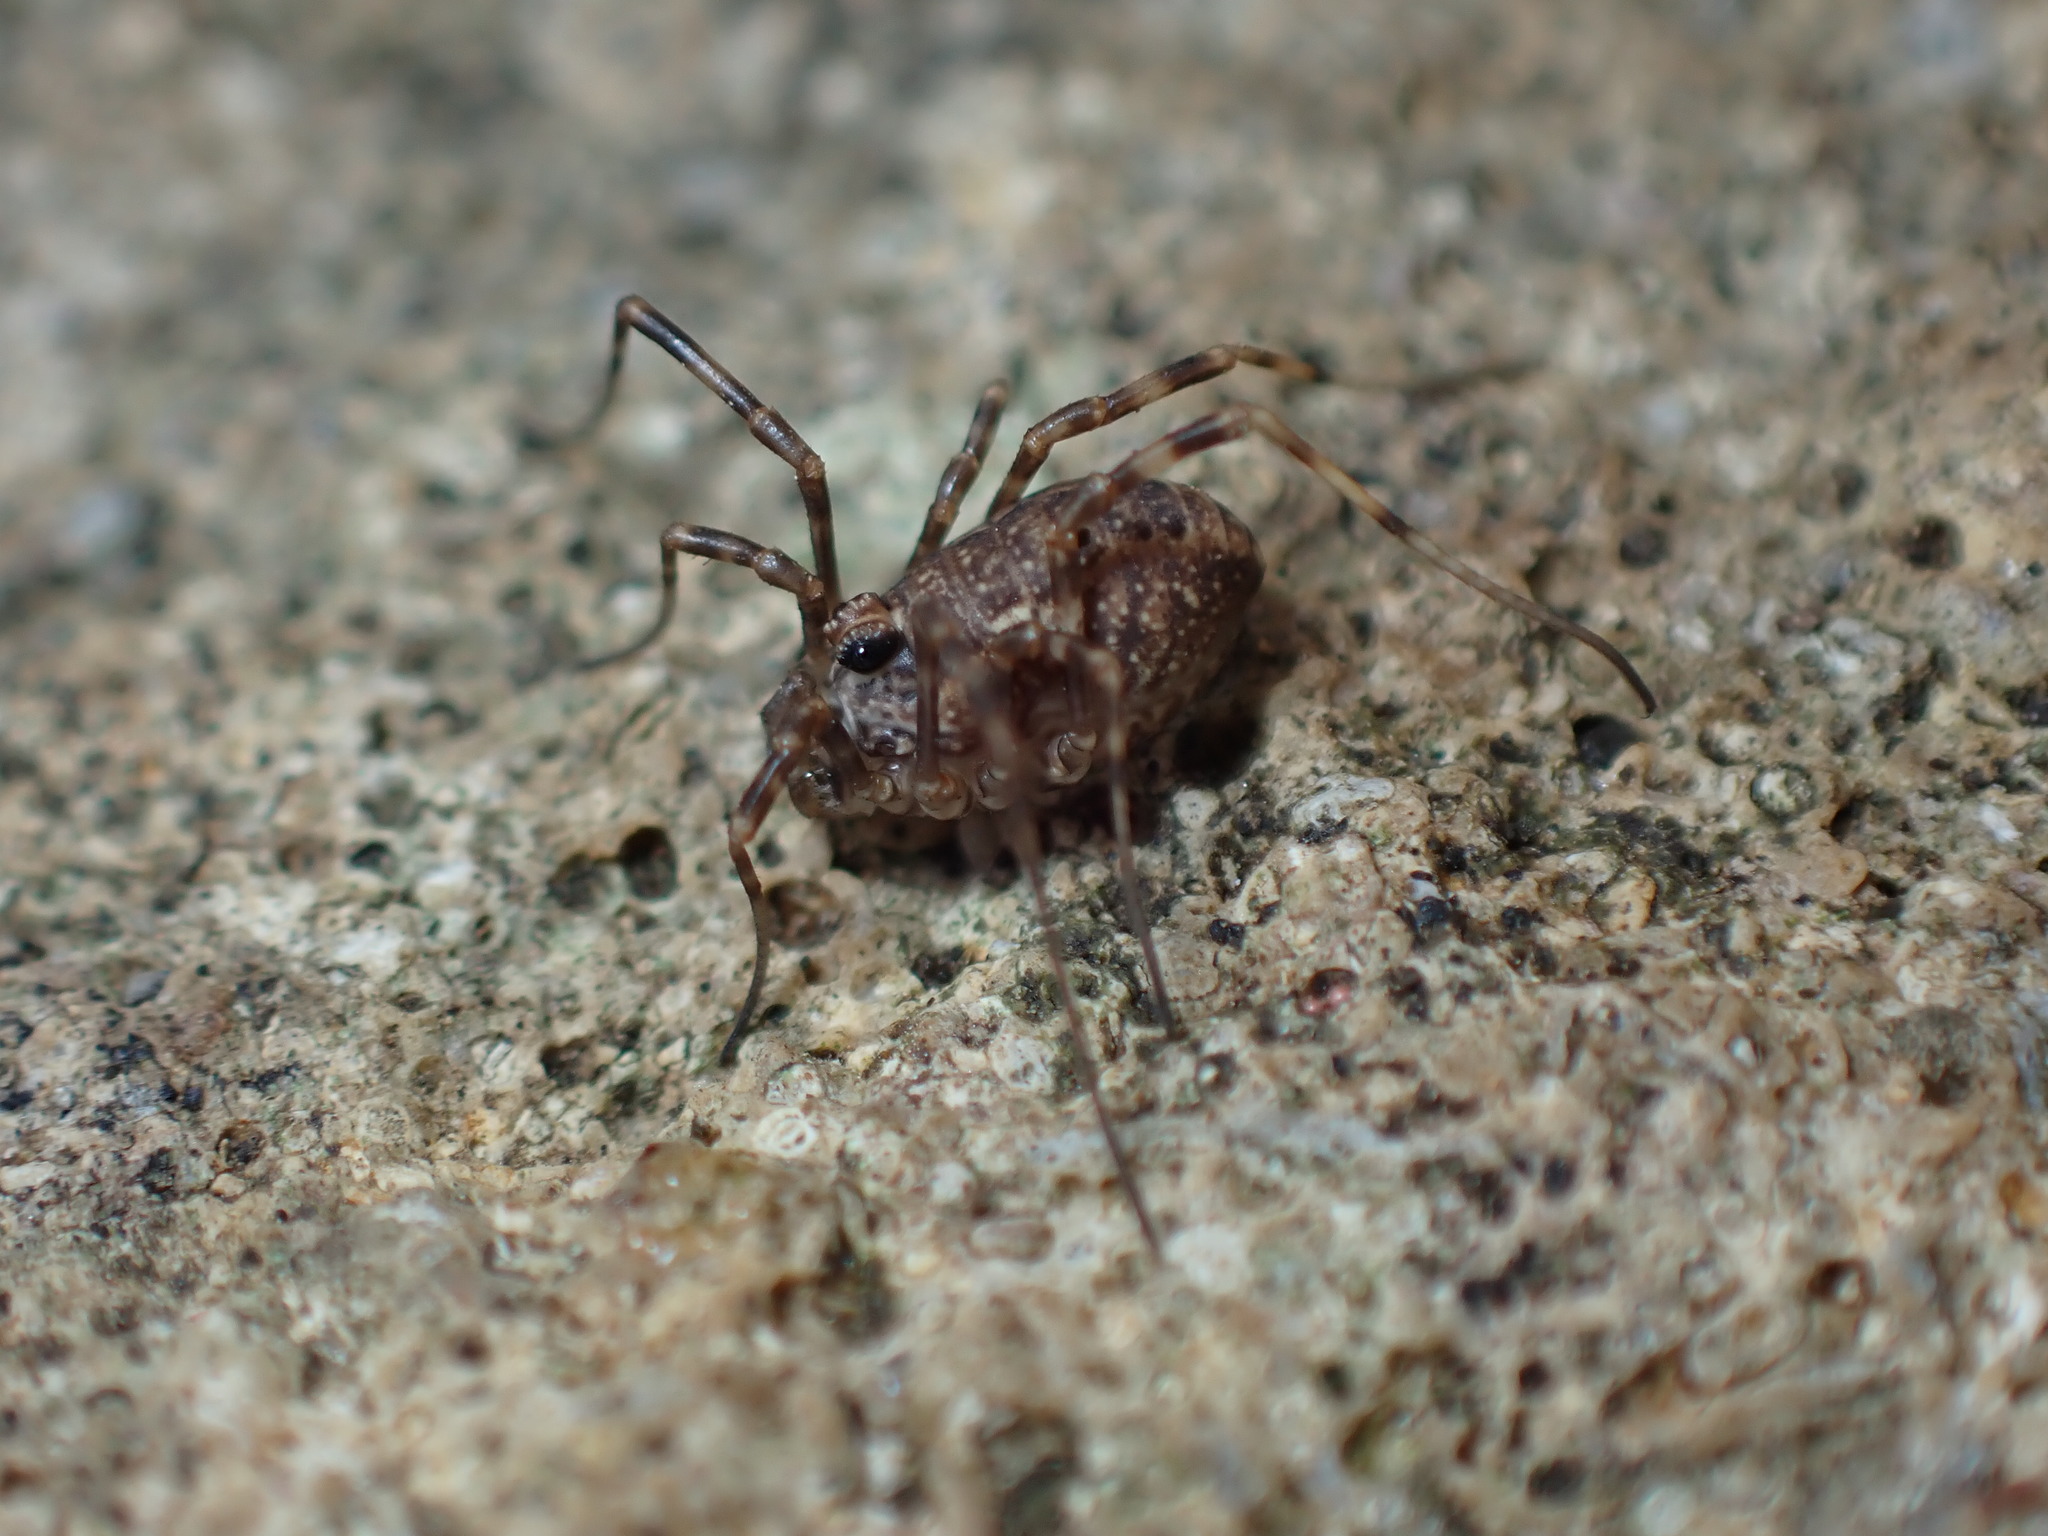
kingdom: Animalia
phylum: Arthropoda
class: Arachnida
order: Opiliones
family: Phalangiidae
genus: Rilaena
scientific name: Rilaena triangularis
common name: Spring harvestman
